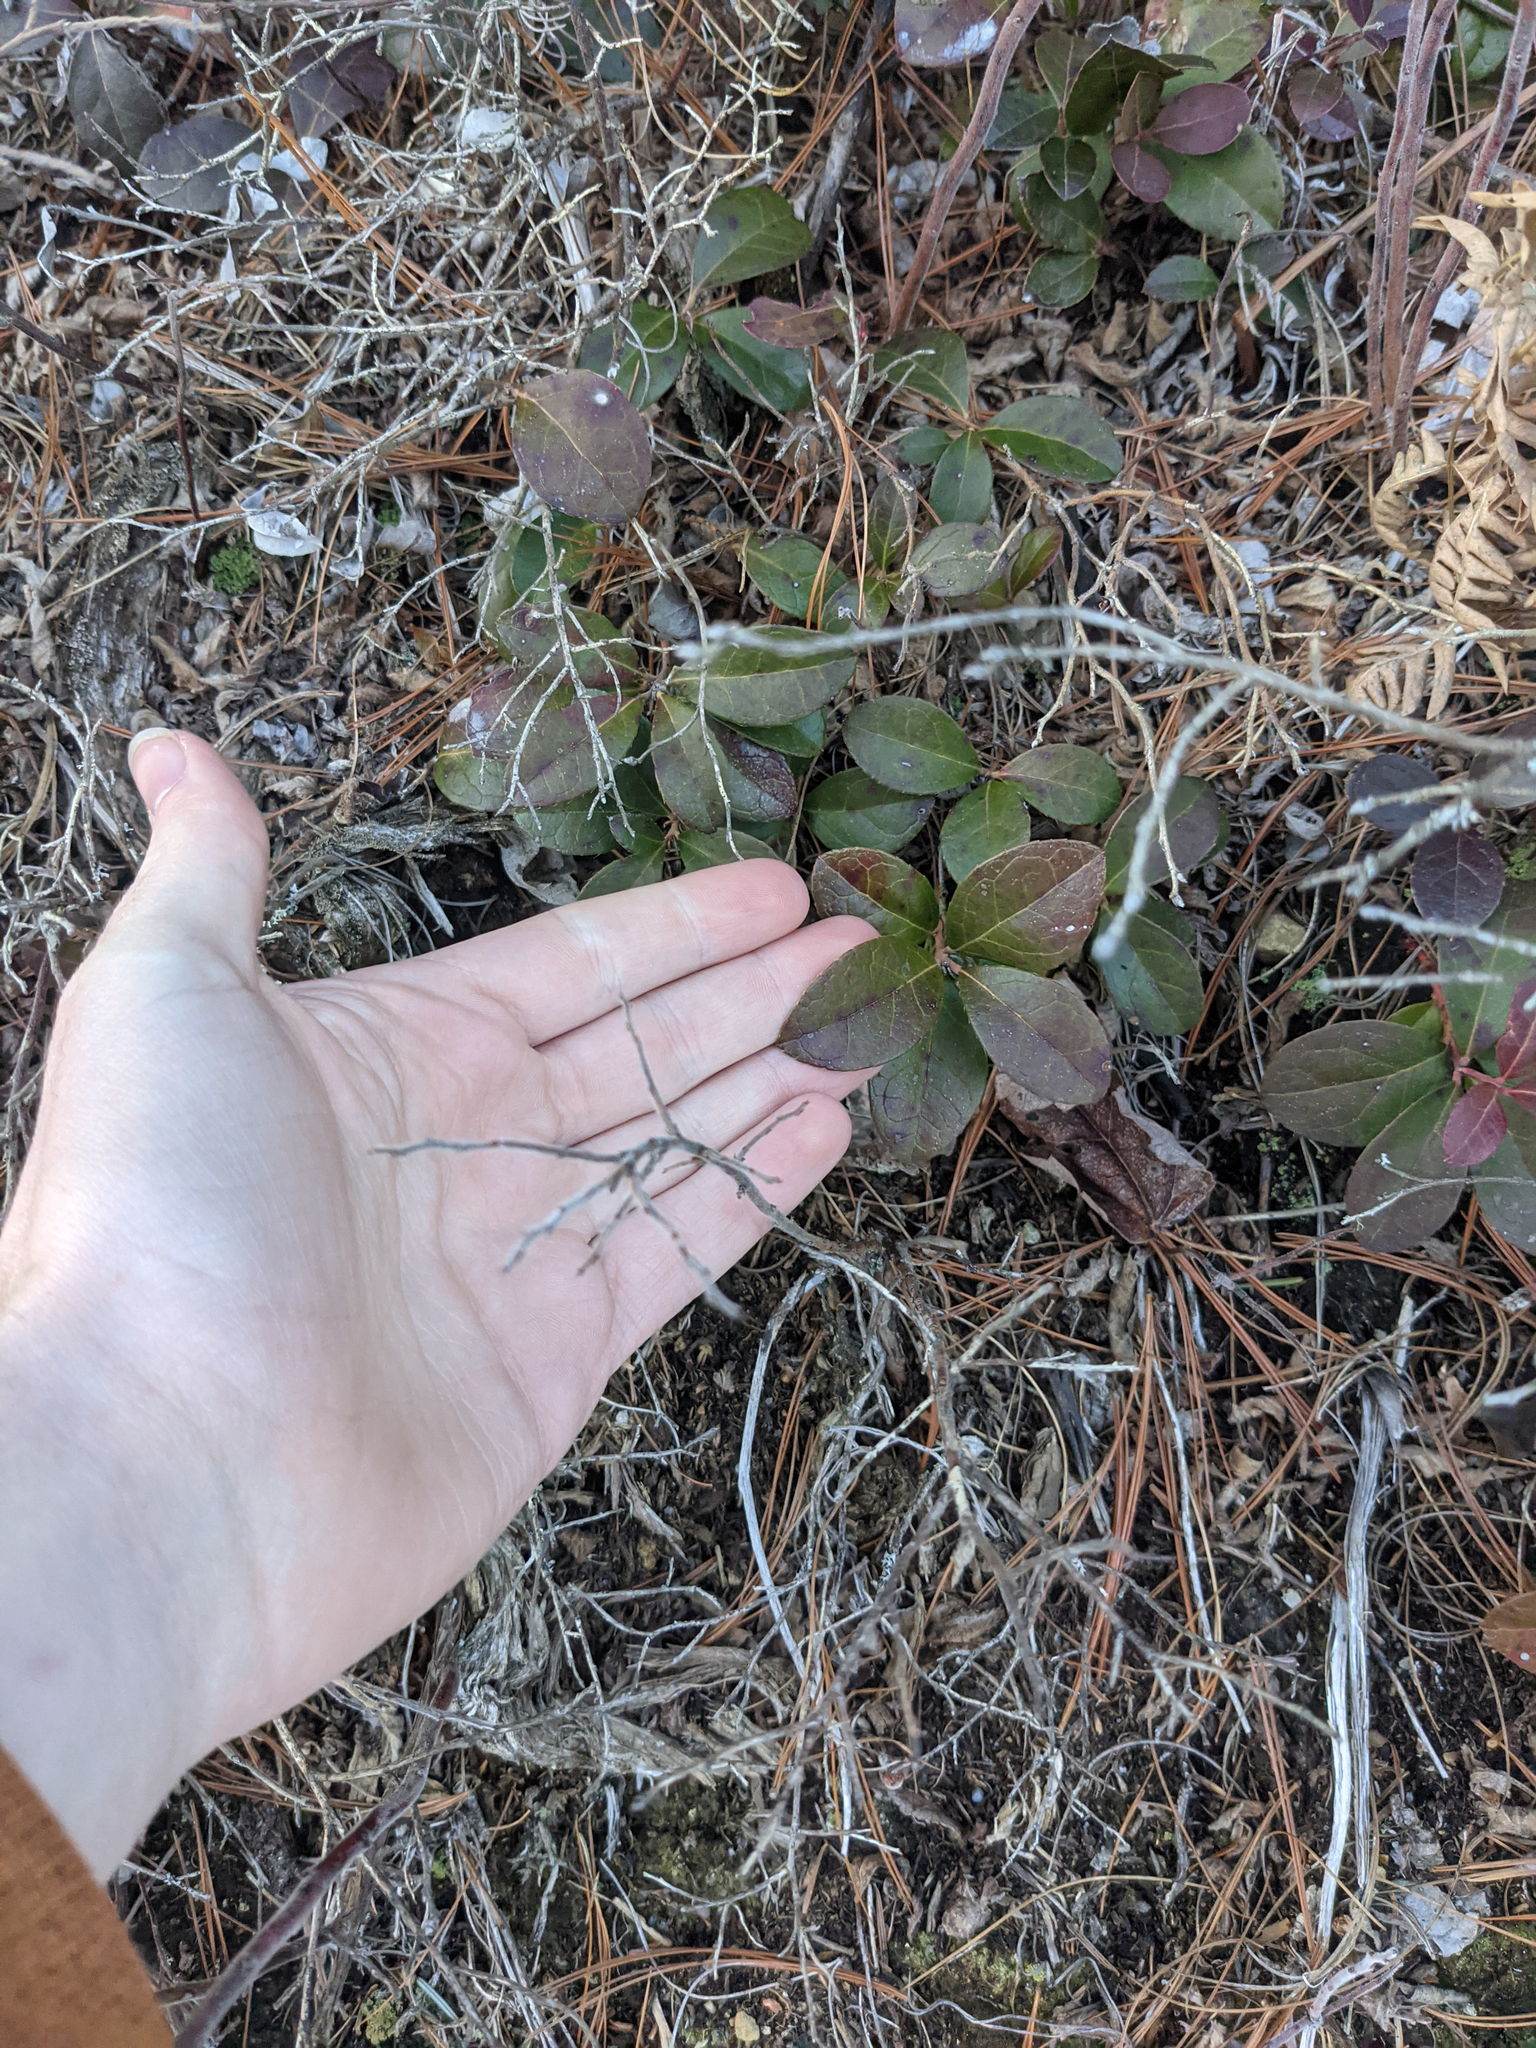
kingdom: Plantae
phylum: Tracheophyta
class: Magnoliopsida
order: Ericales
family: Ericaceae
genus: Gaultheria
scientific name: Gaultheria procumbens
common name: Checkerberry
